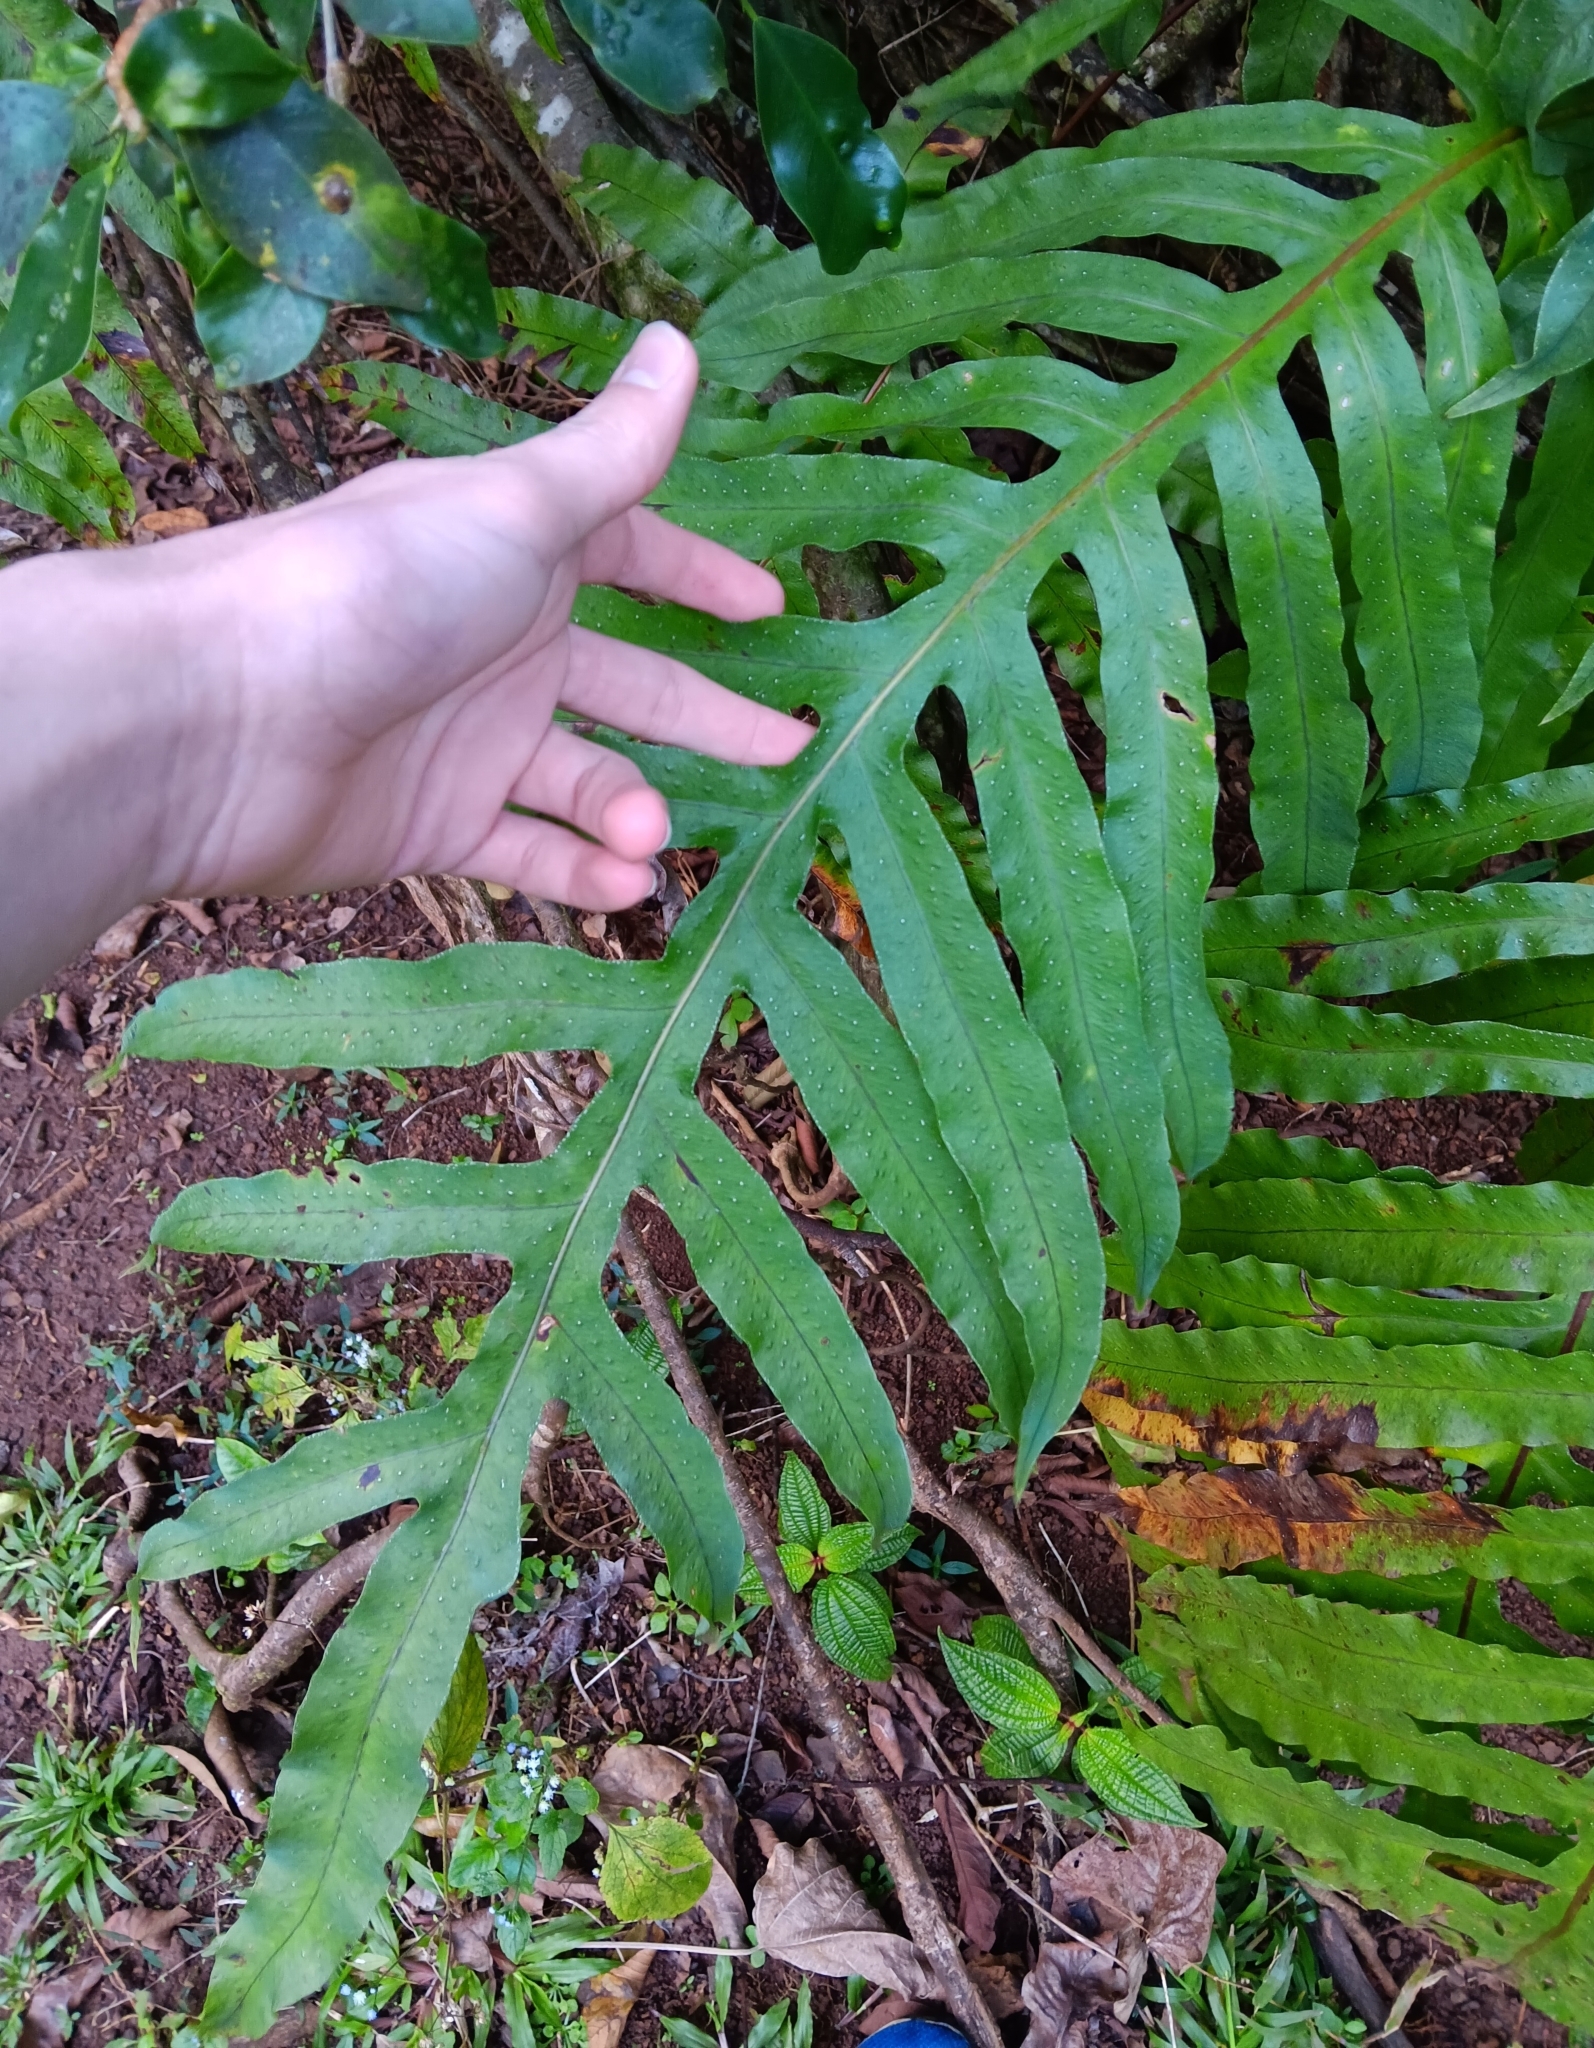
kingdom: Plantae
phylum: Tracheophyta
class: Polypodiopsida
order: Polypodiales
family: Polypodiaceae
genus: Phlebodium
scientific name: Phlebodium aureum
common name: Gold-foot fern
